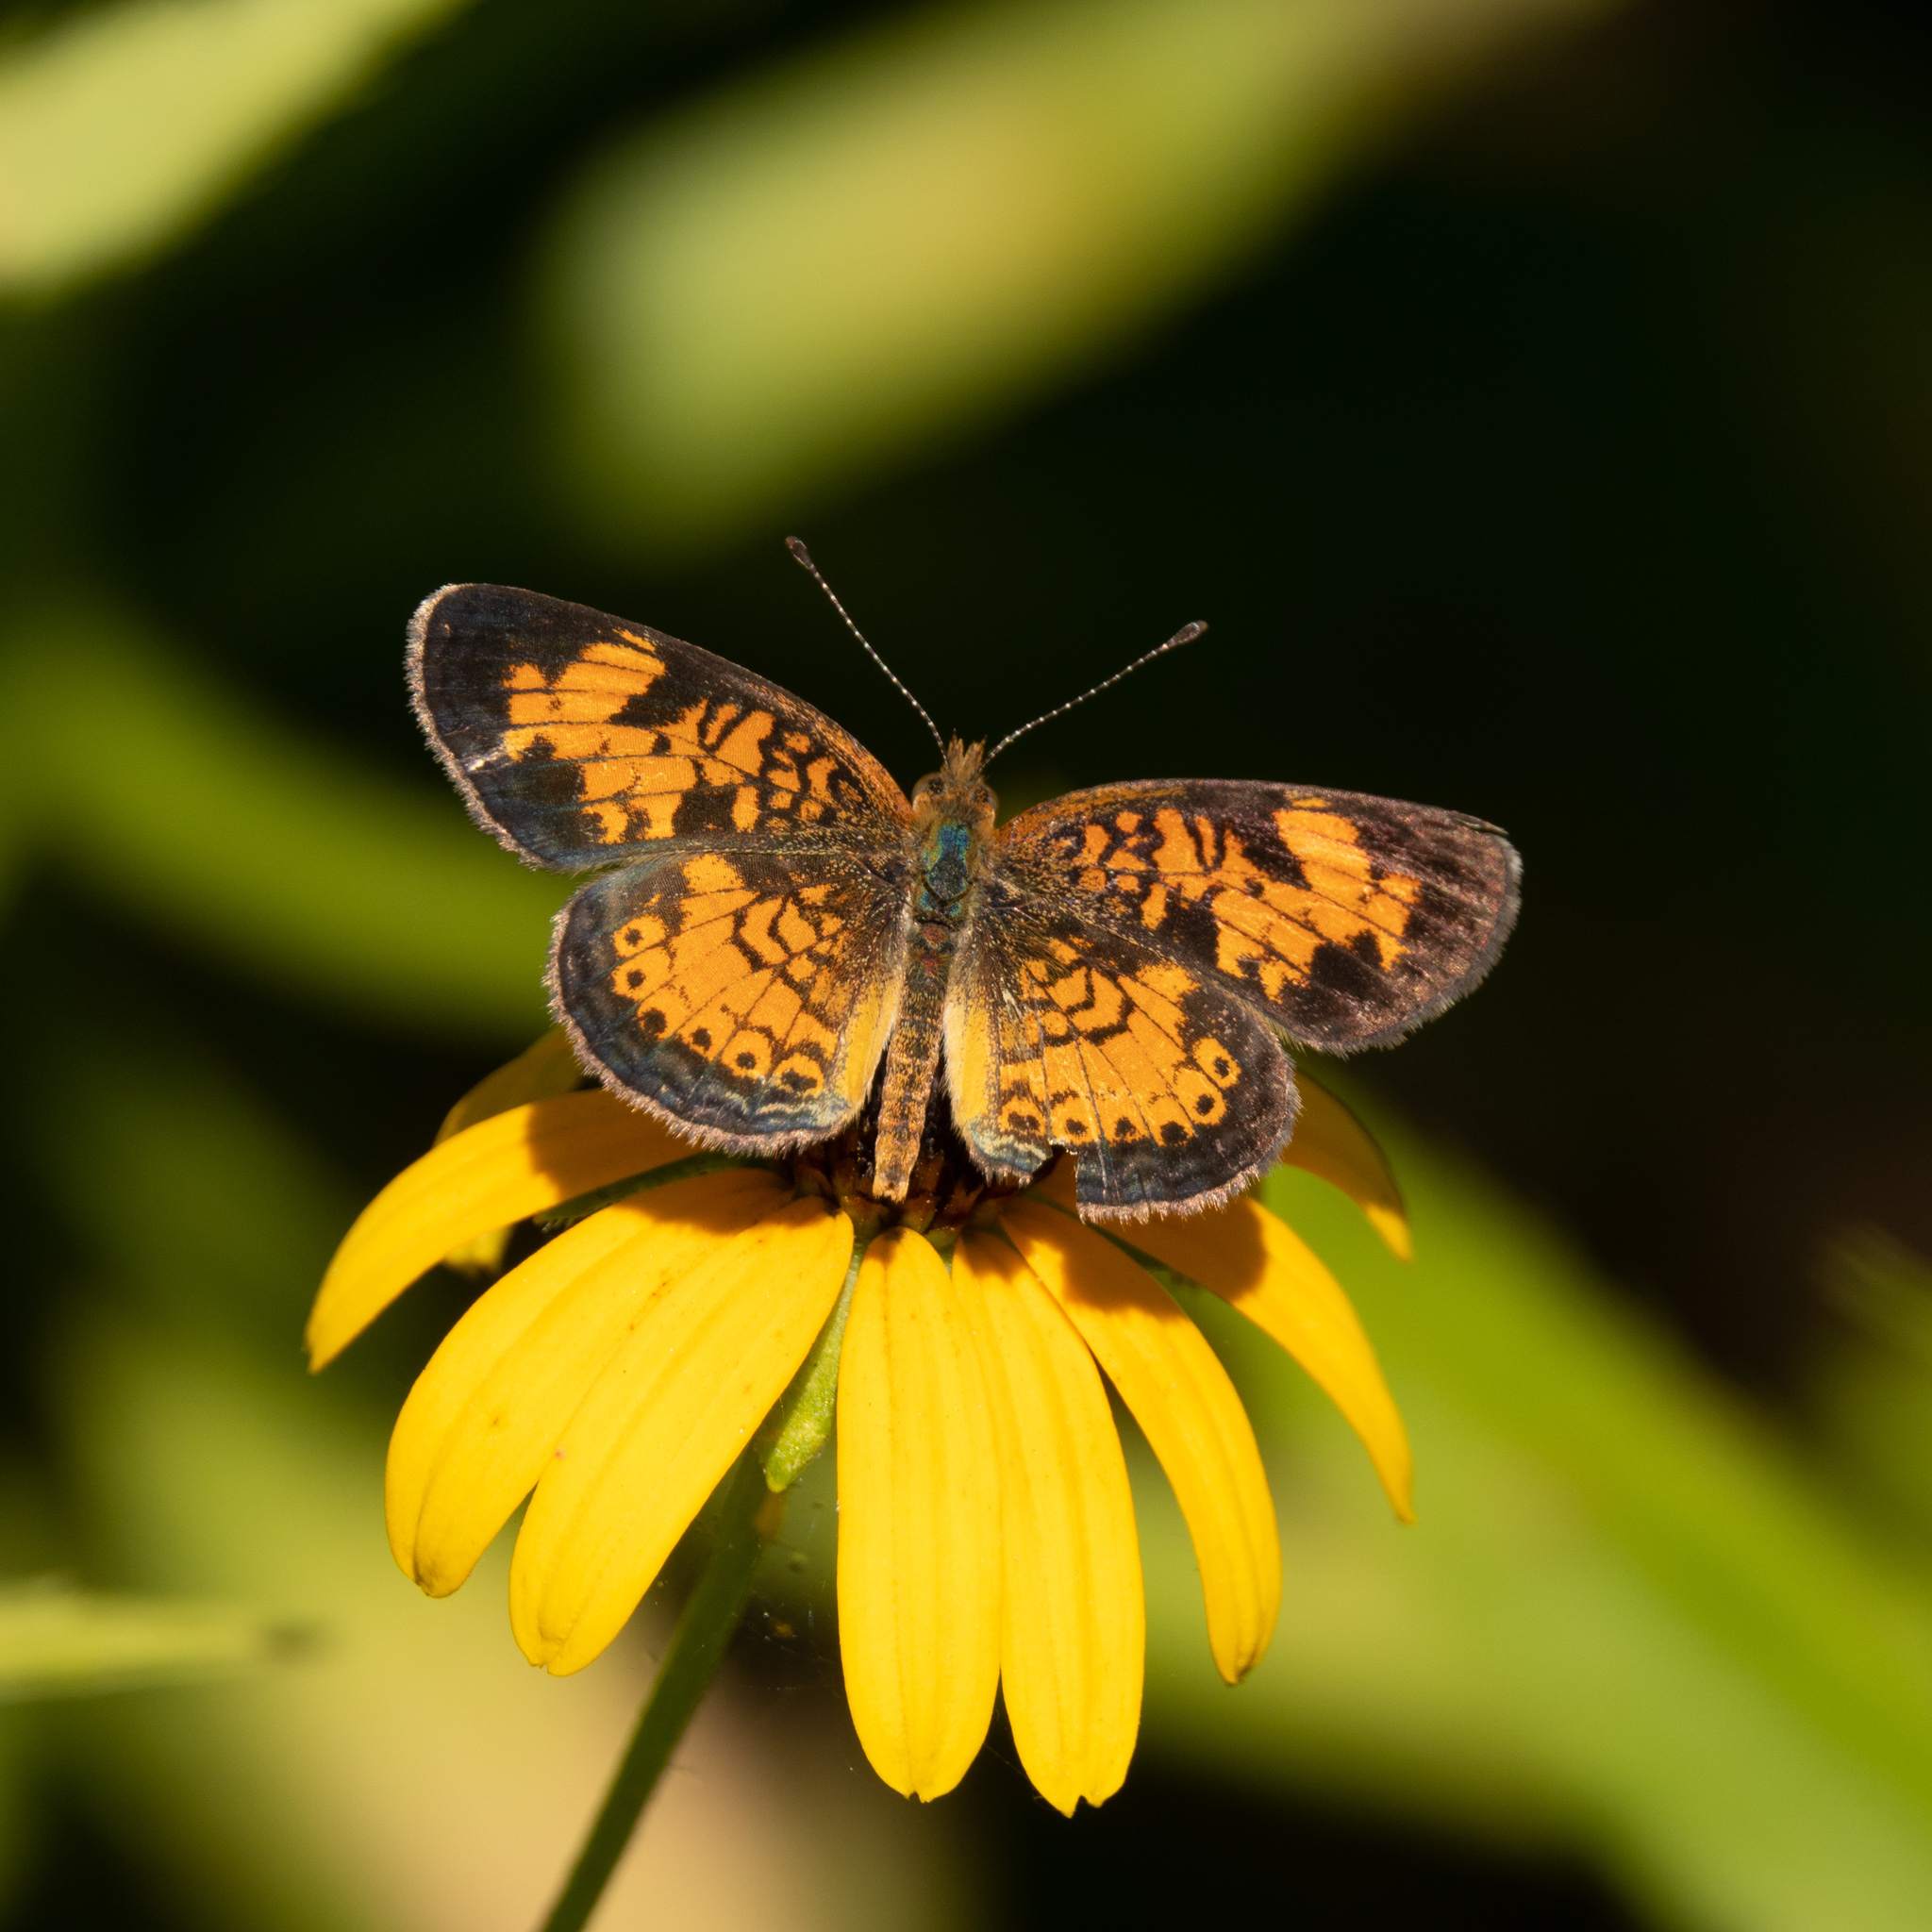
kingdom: Animalia
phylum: Arthropoda
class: Insecta
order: Lepidoptera
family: Nymphalidae
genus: Phyciodes
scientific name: Phyciodes tharos
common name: Pearl crescent
